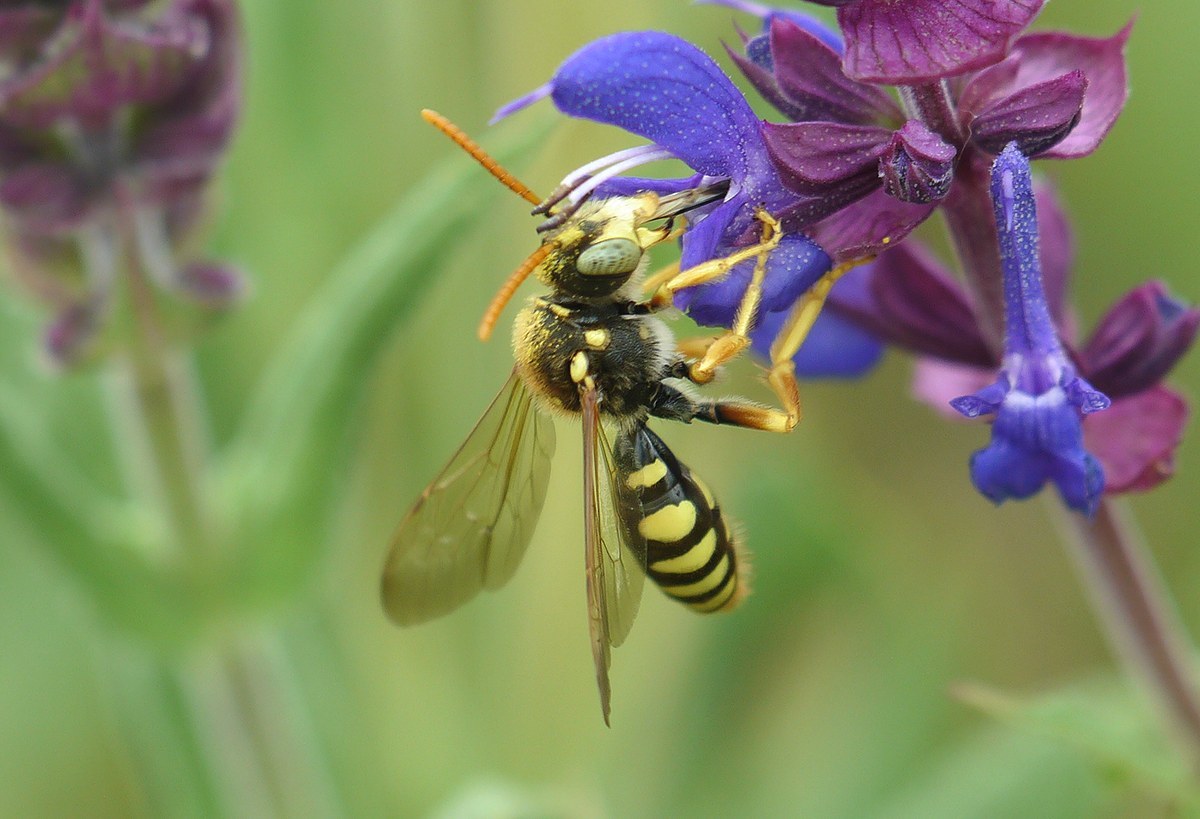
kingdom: Animalia
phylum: Arthropoda
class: Insecta
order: Hymenoptera
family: Apidae
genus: Nomada
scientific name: Nomada nobilis
